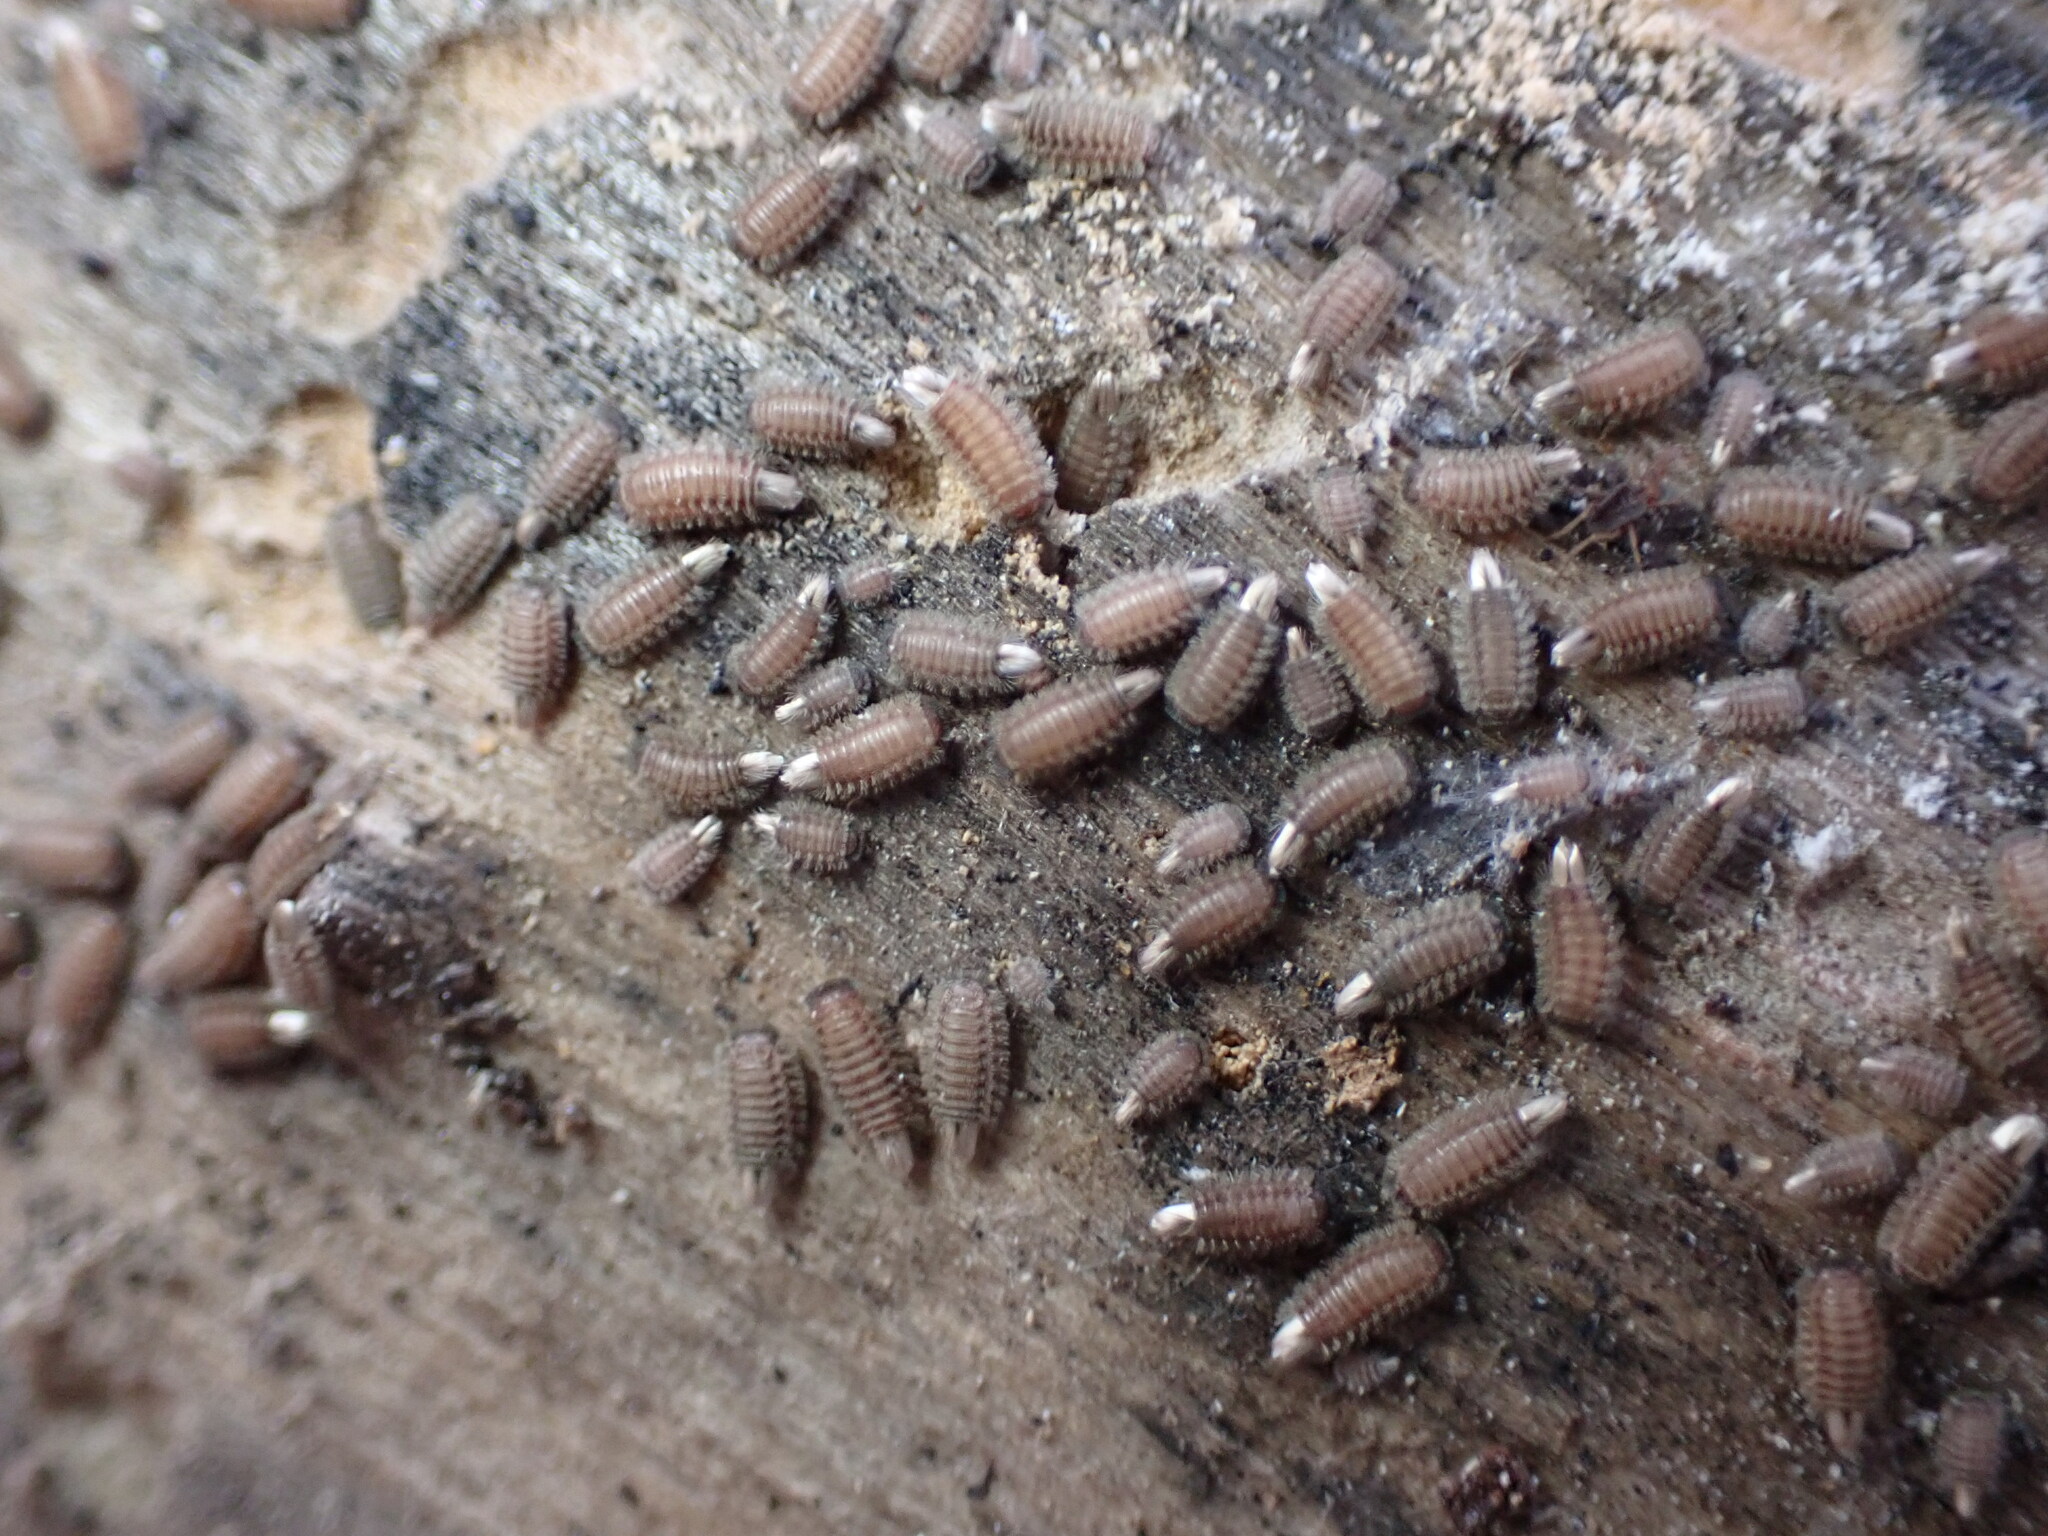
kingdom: Animalia
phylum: Arthropoda
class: Diplopoda
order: Polyxenida
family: Polyxenidae
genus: Polyxenus
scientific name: Polyxenus lagurus
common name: Bristly millipede
